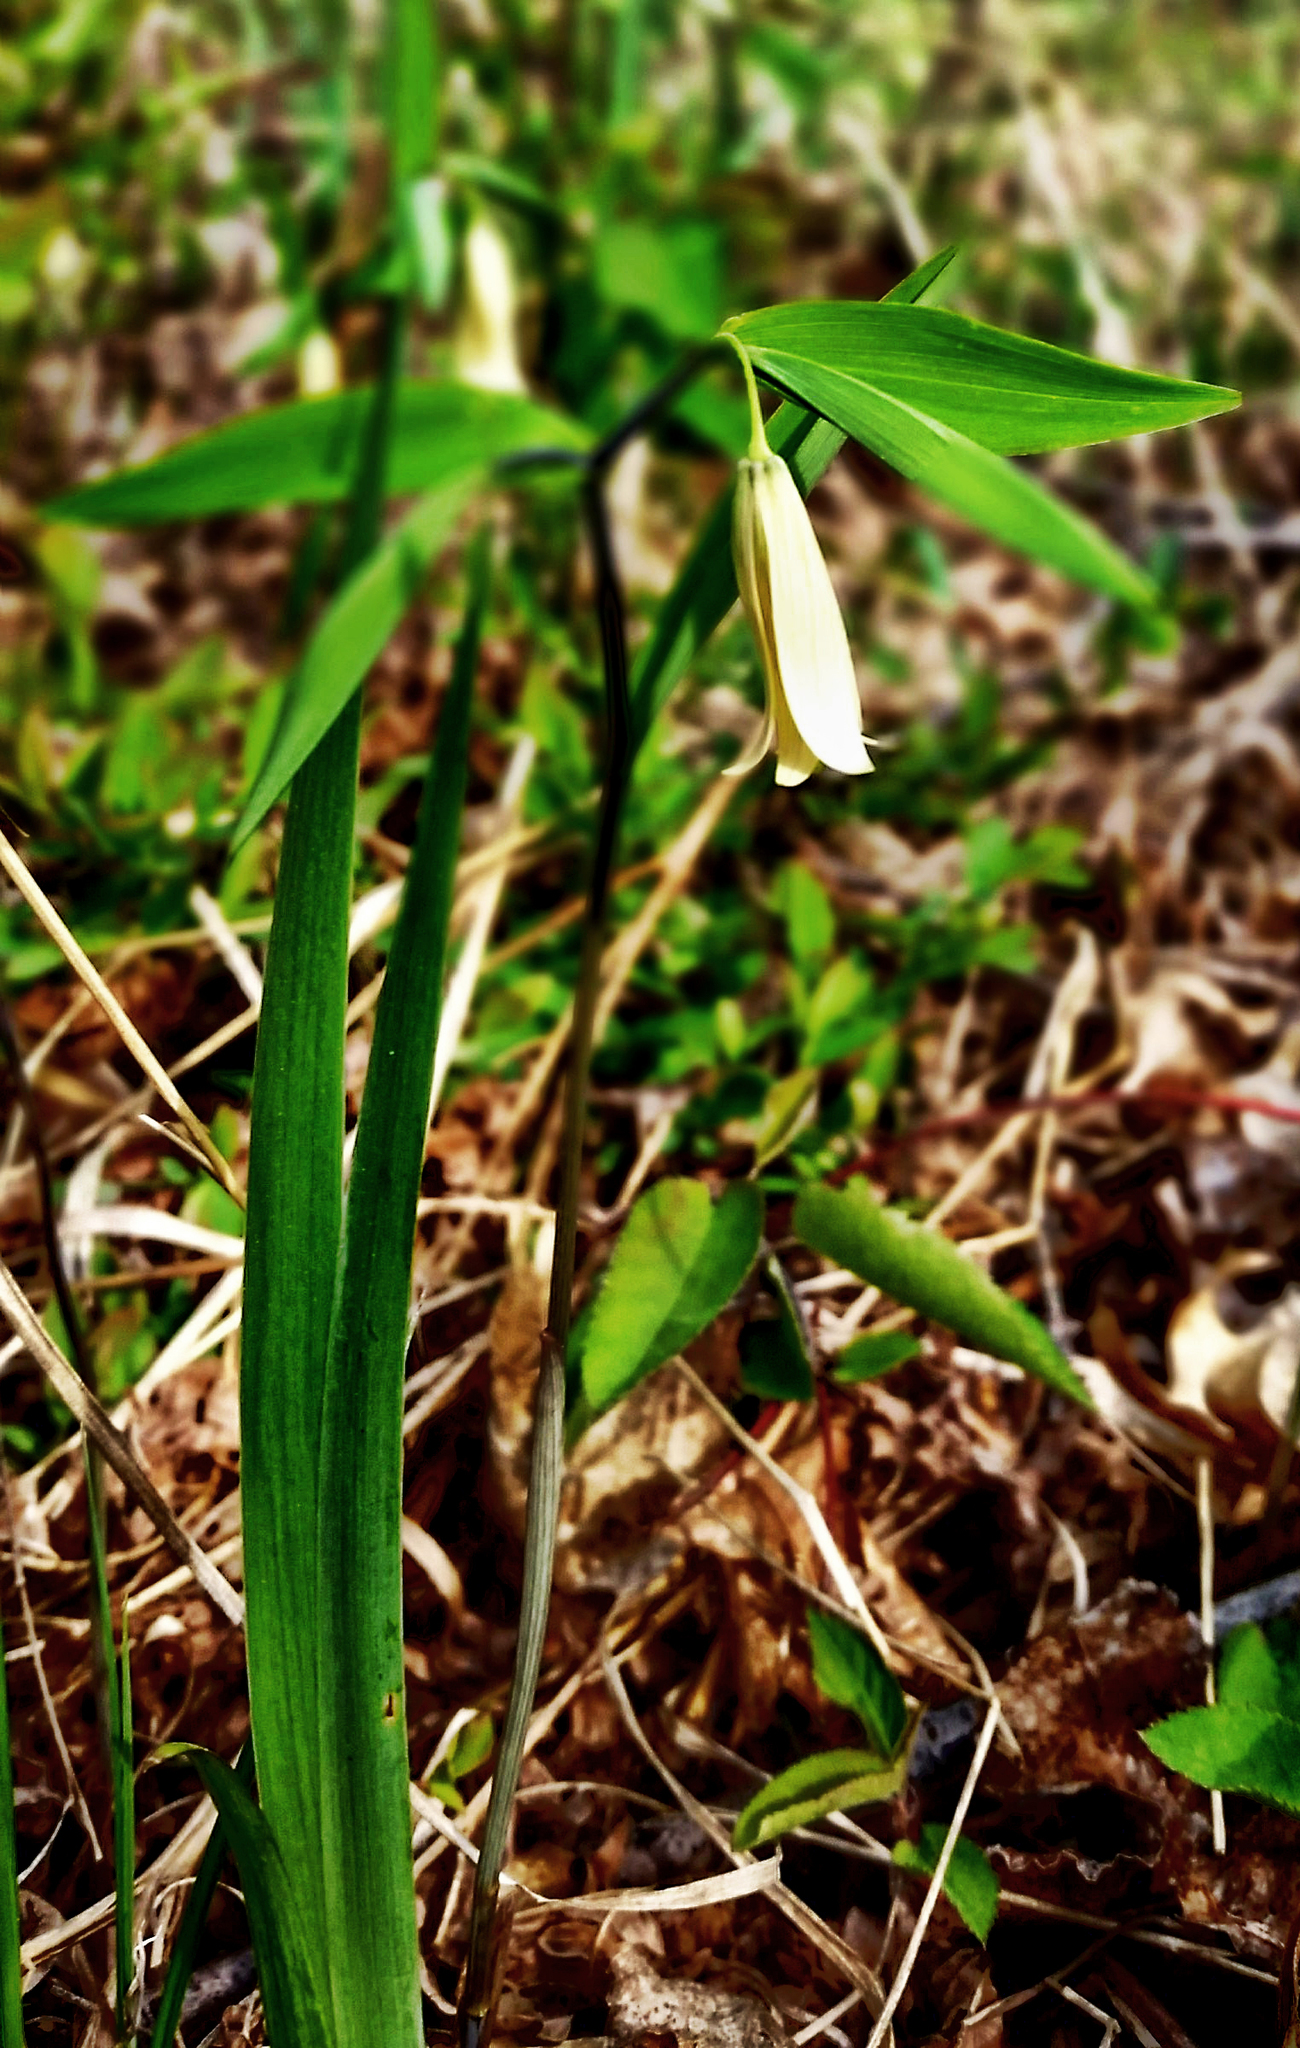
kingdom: Plantae
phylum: Tracheophyta
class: Liliopsida
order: Liliales
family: Colchicaceae
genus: Uvularia
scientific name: Uvularia sessilifolia
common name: Straw-lily
